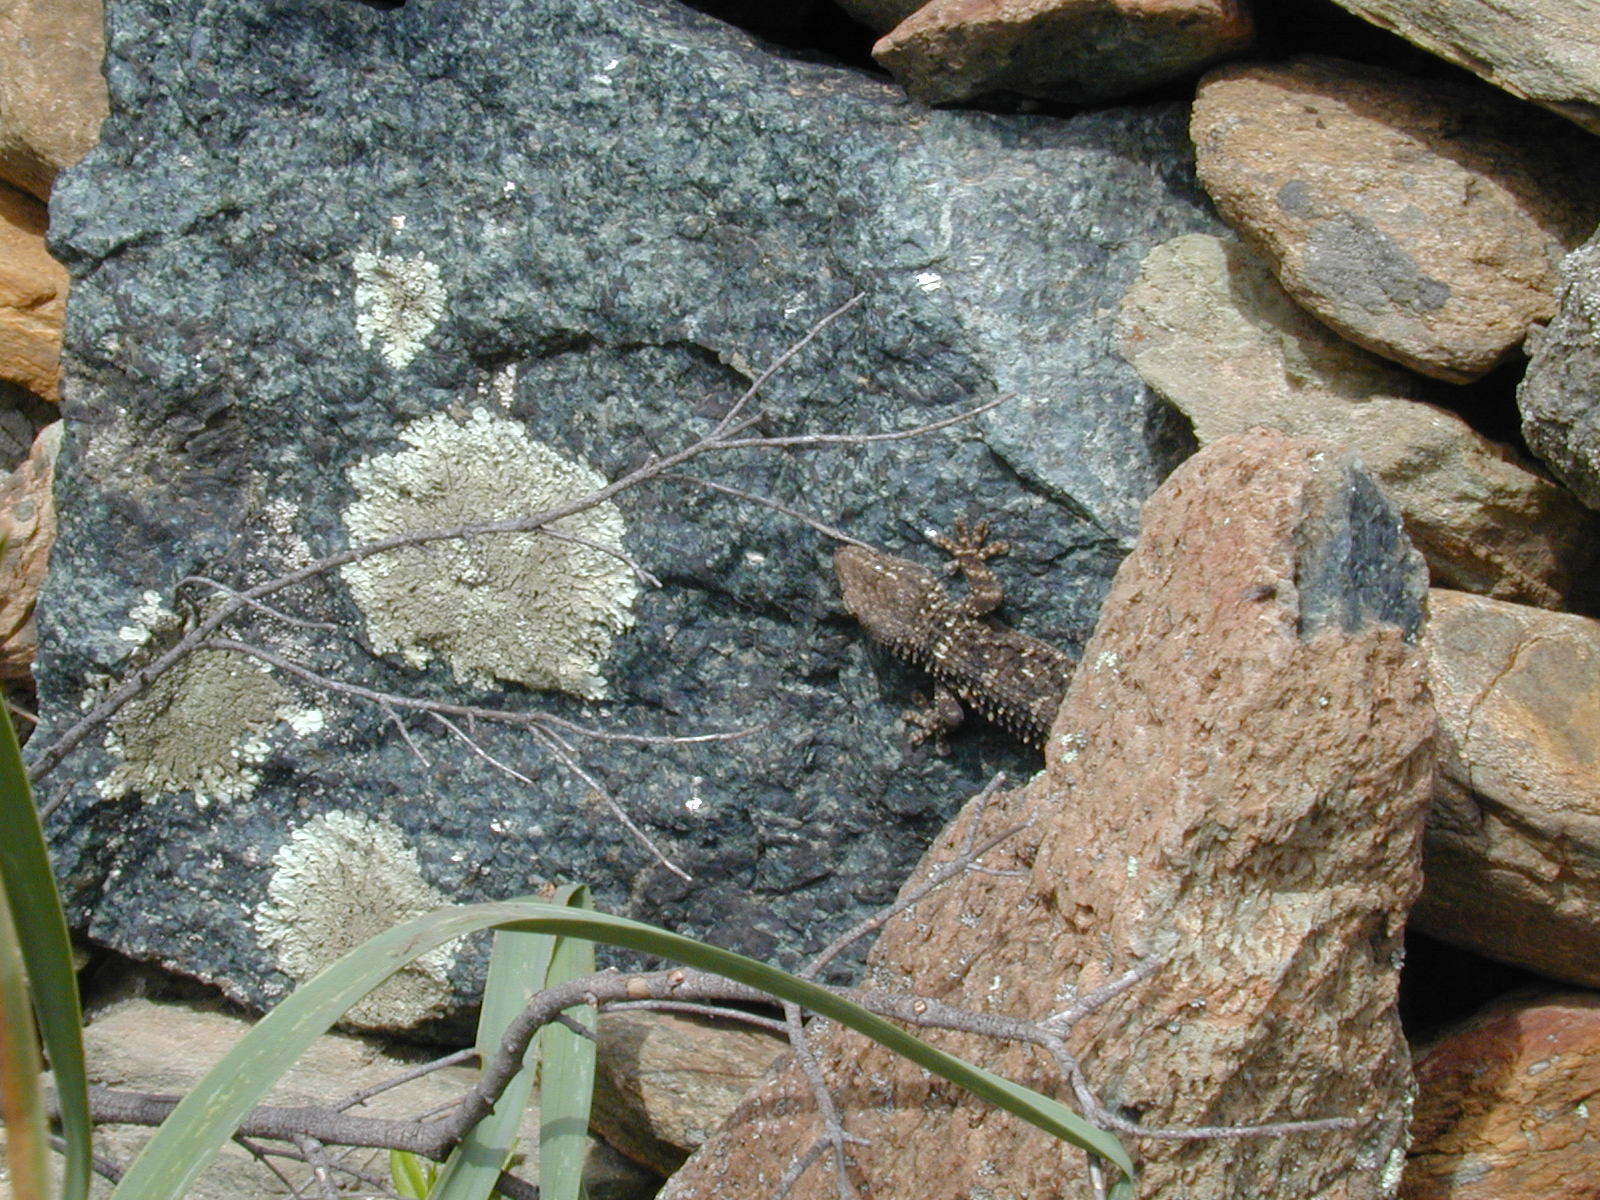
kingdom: Animalia
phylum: Chordata
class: Squamata
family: Phyllodactylidae
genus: Tarentola
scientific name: Tarentola mauritanica
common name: Moorish gecko
